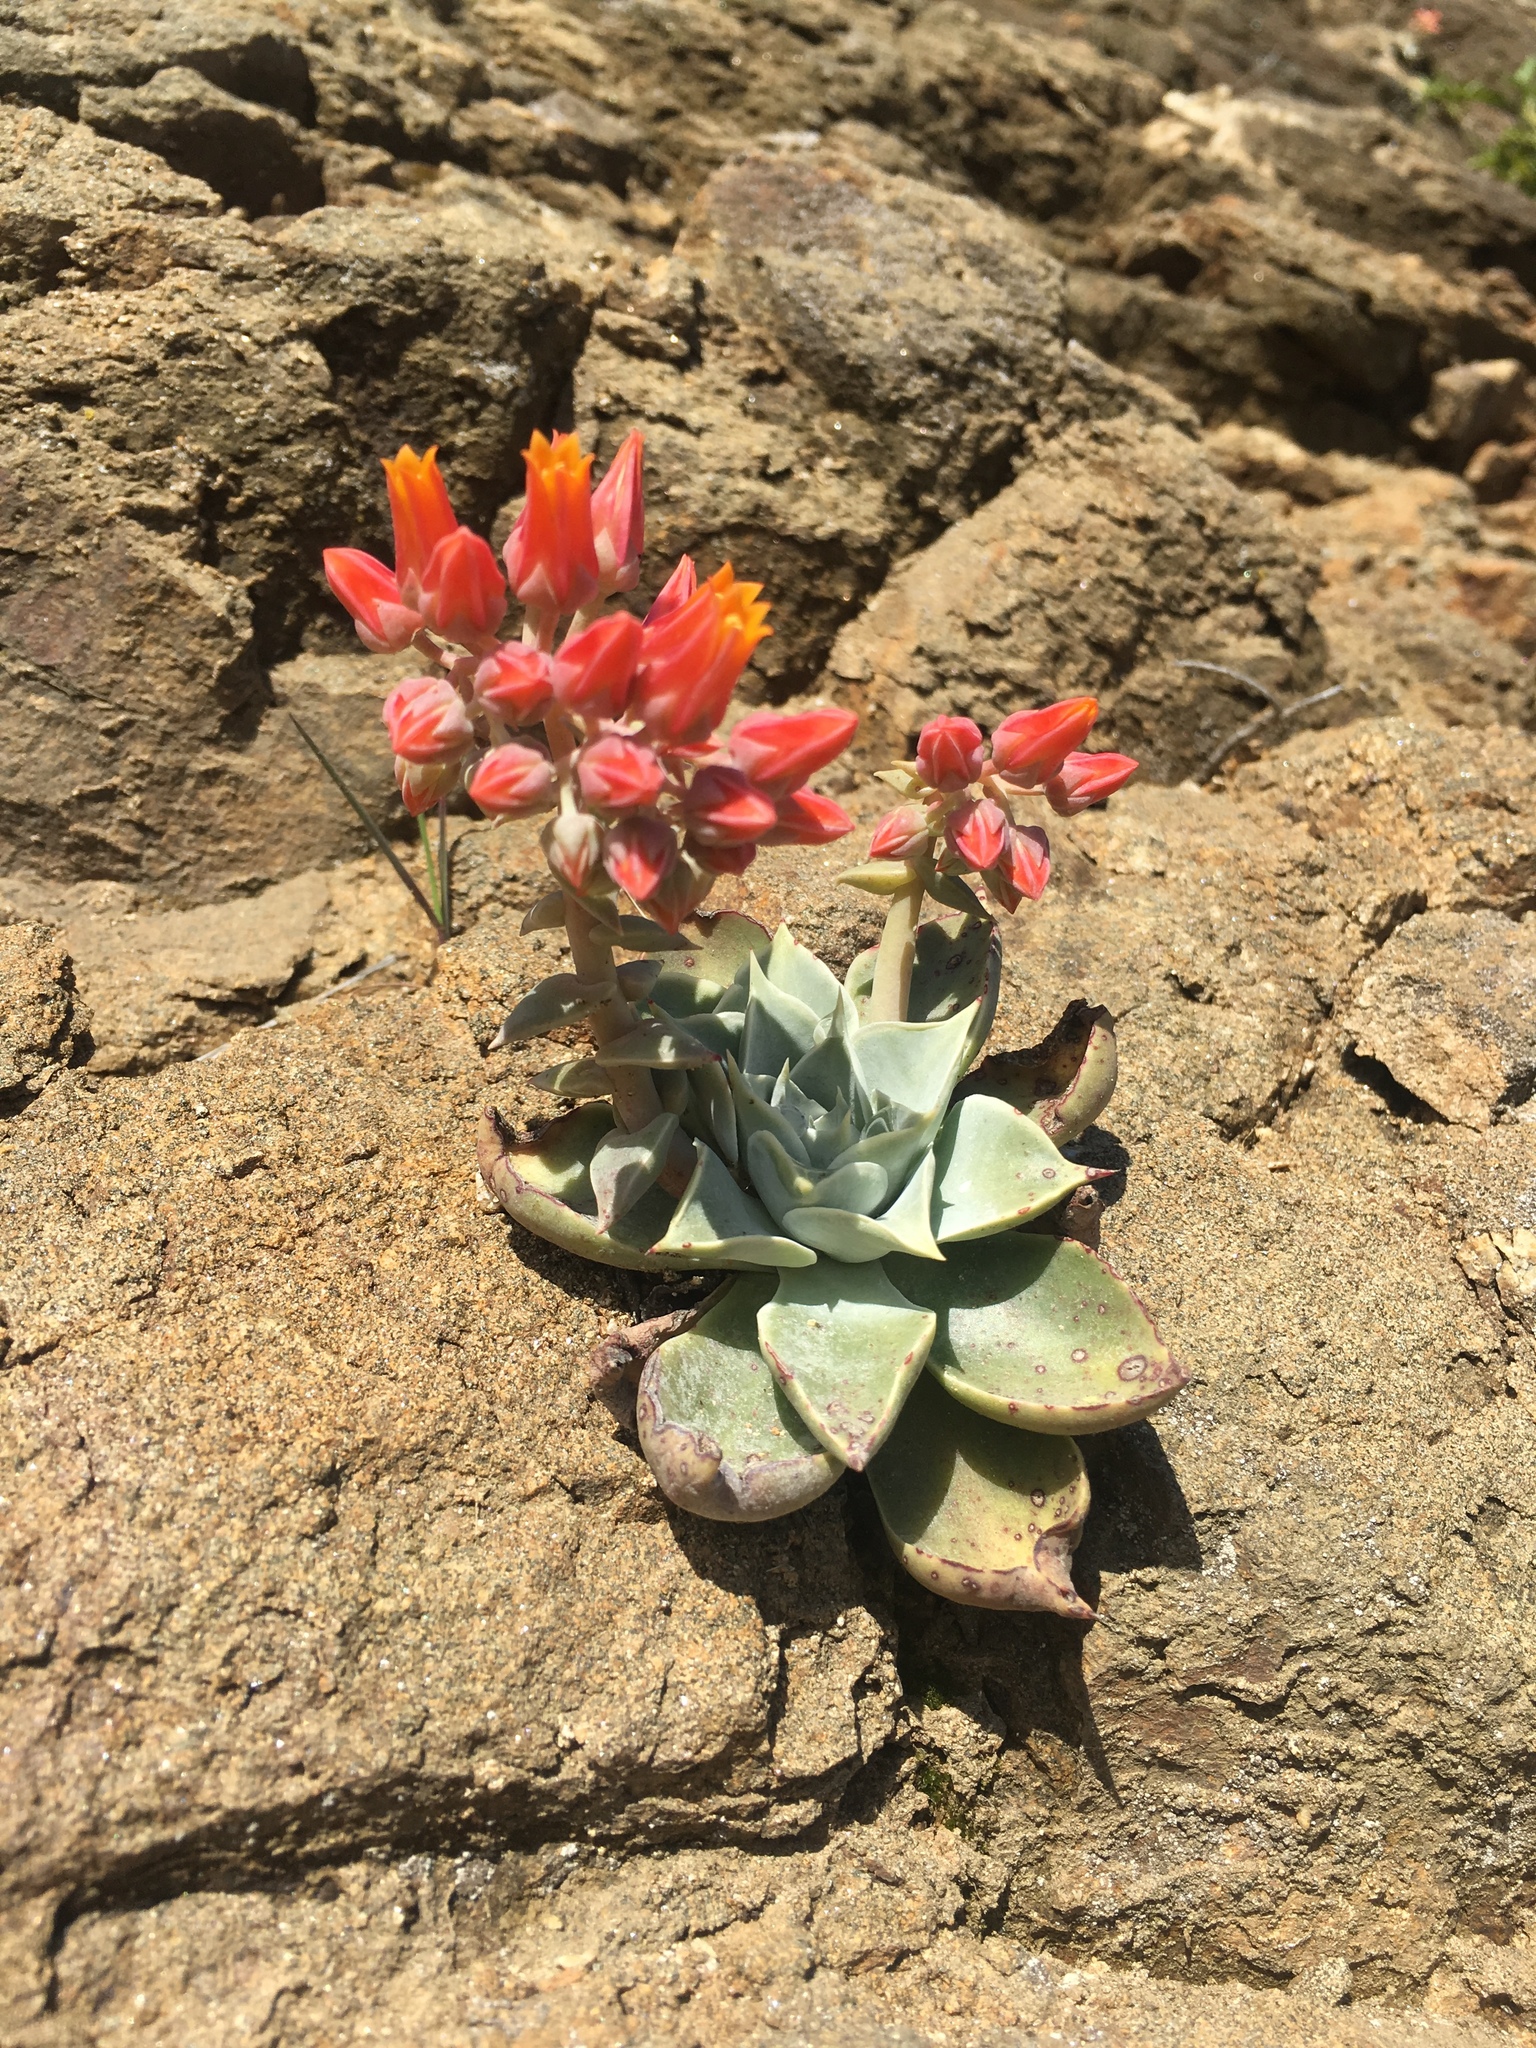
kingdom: Plantae
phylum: Tracheophyta
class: Magnoliopsida
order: Saxifragales
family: Crassulaceae
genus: Dudleya
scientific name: Dudleya cymosa
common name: Canyon dudleya
